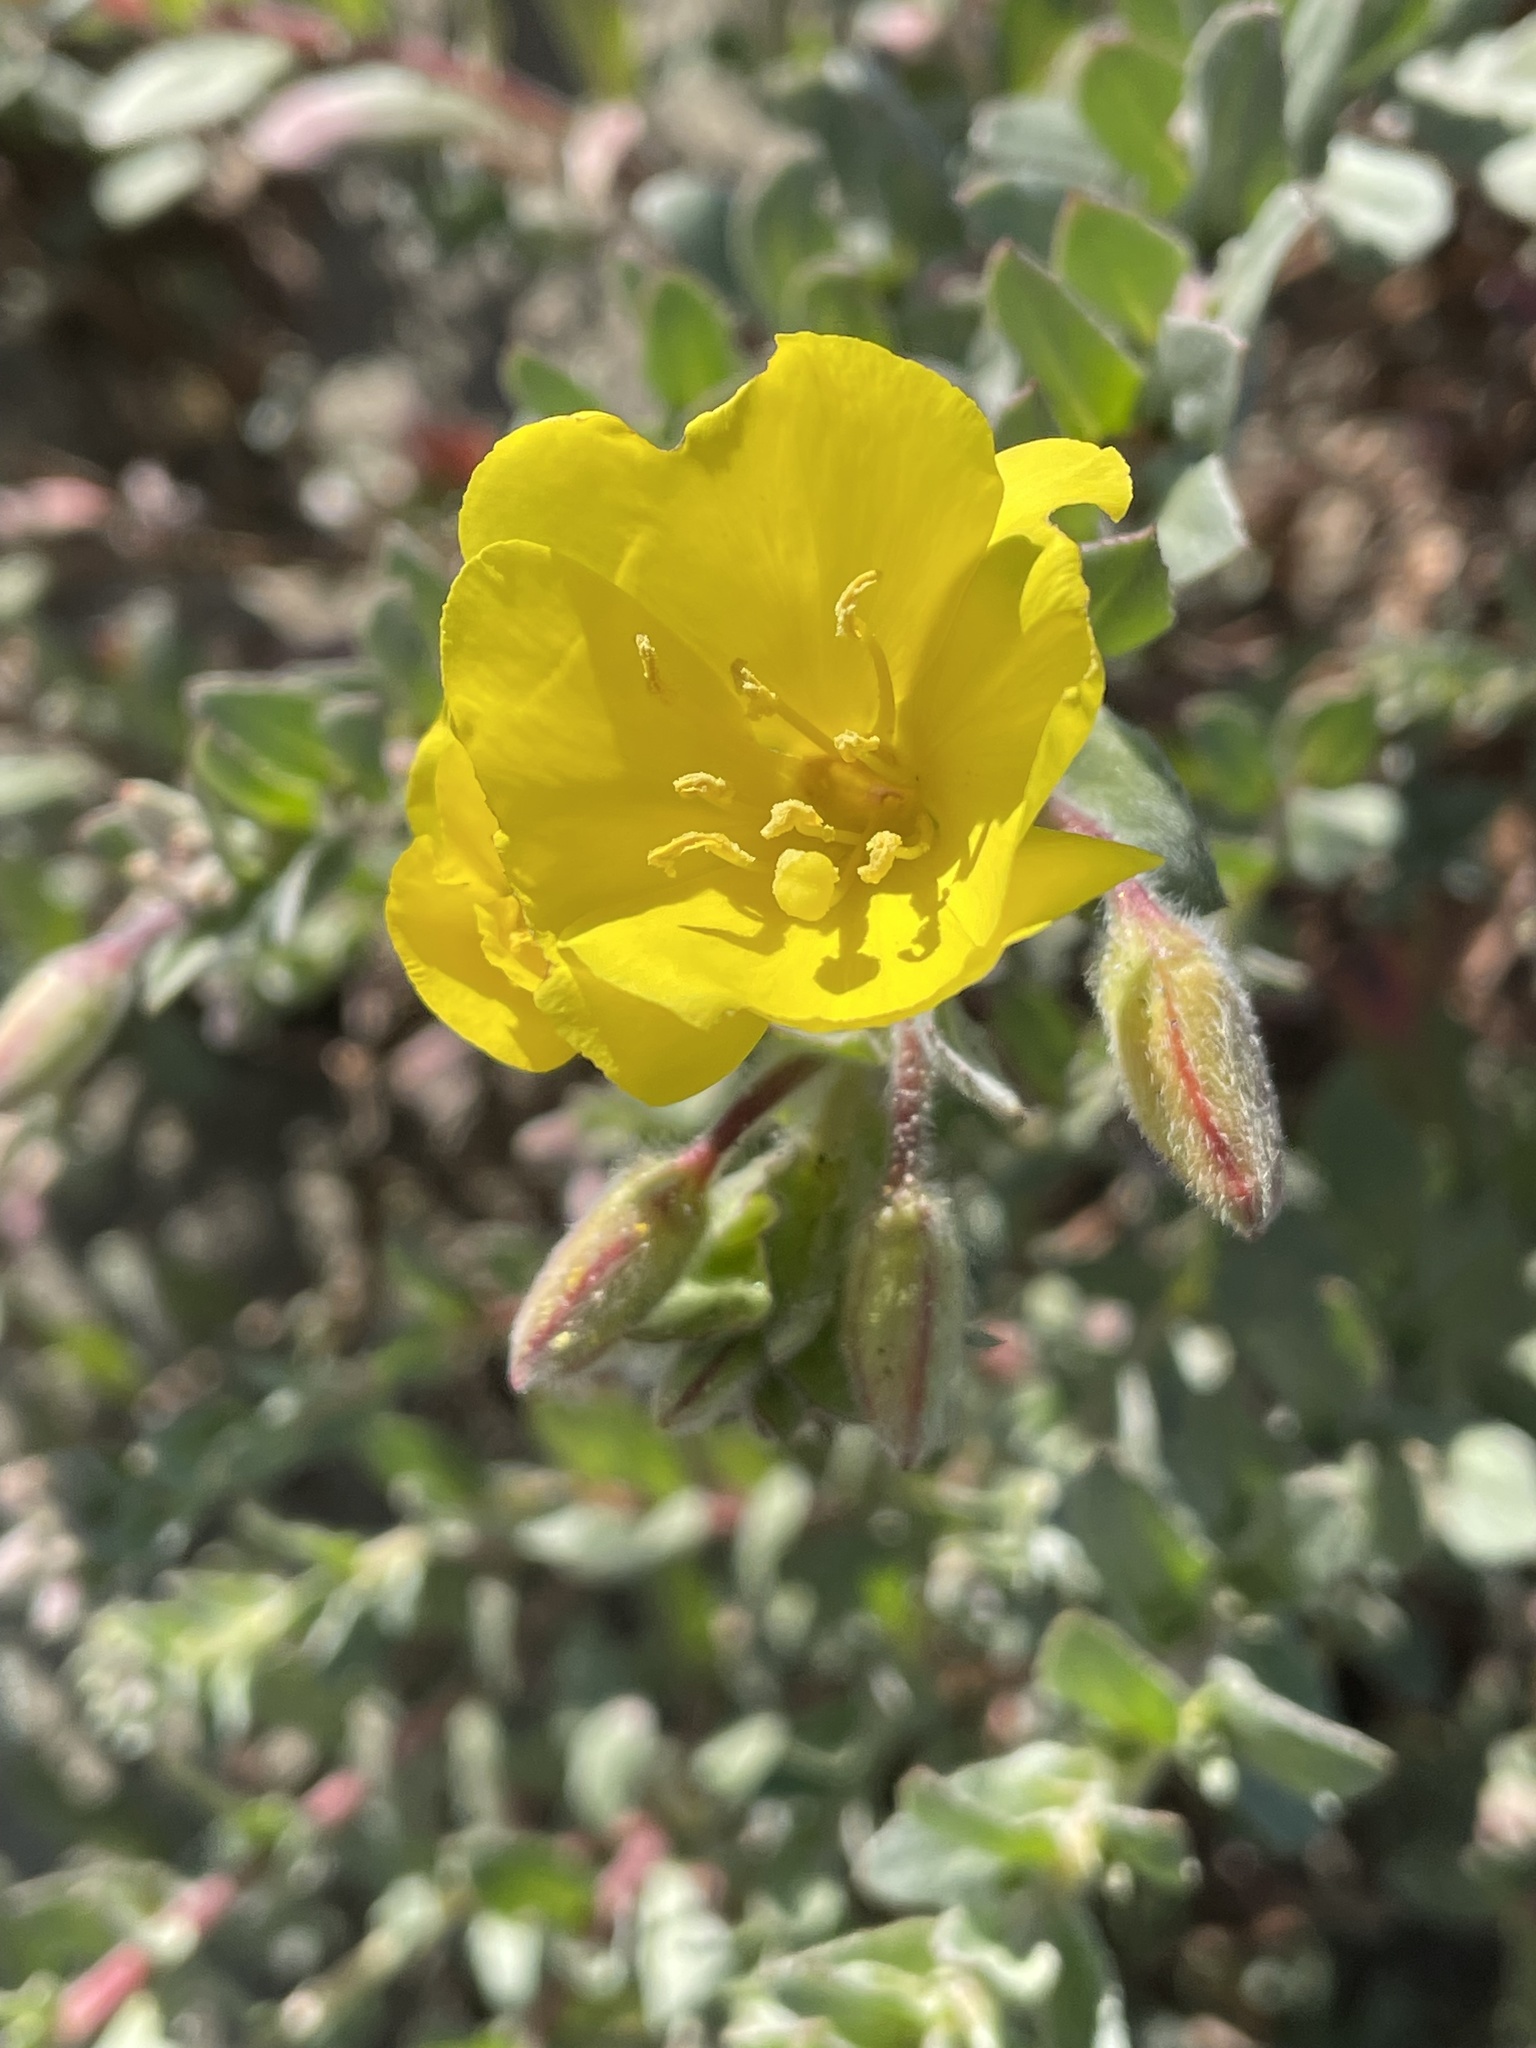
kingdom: Plantae
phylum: Tracheophyta
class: Magnoliopsida
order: Myrtales
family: Onagraceae
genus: Camissoniopsis
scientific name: Camissoniopsis cheiranthifolia
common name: Beach suncup
